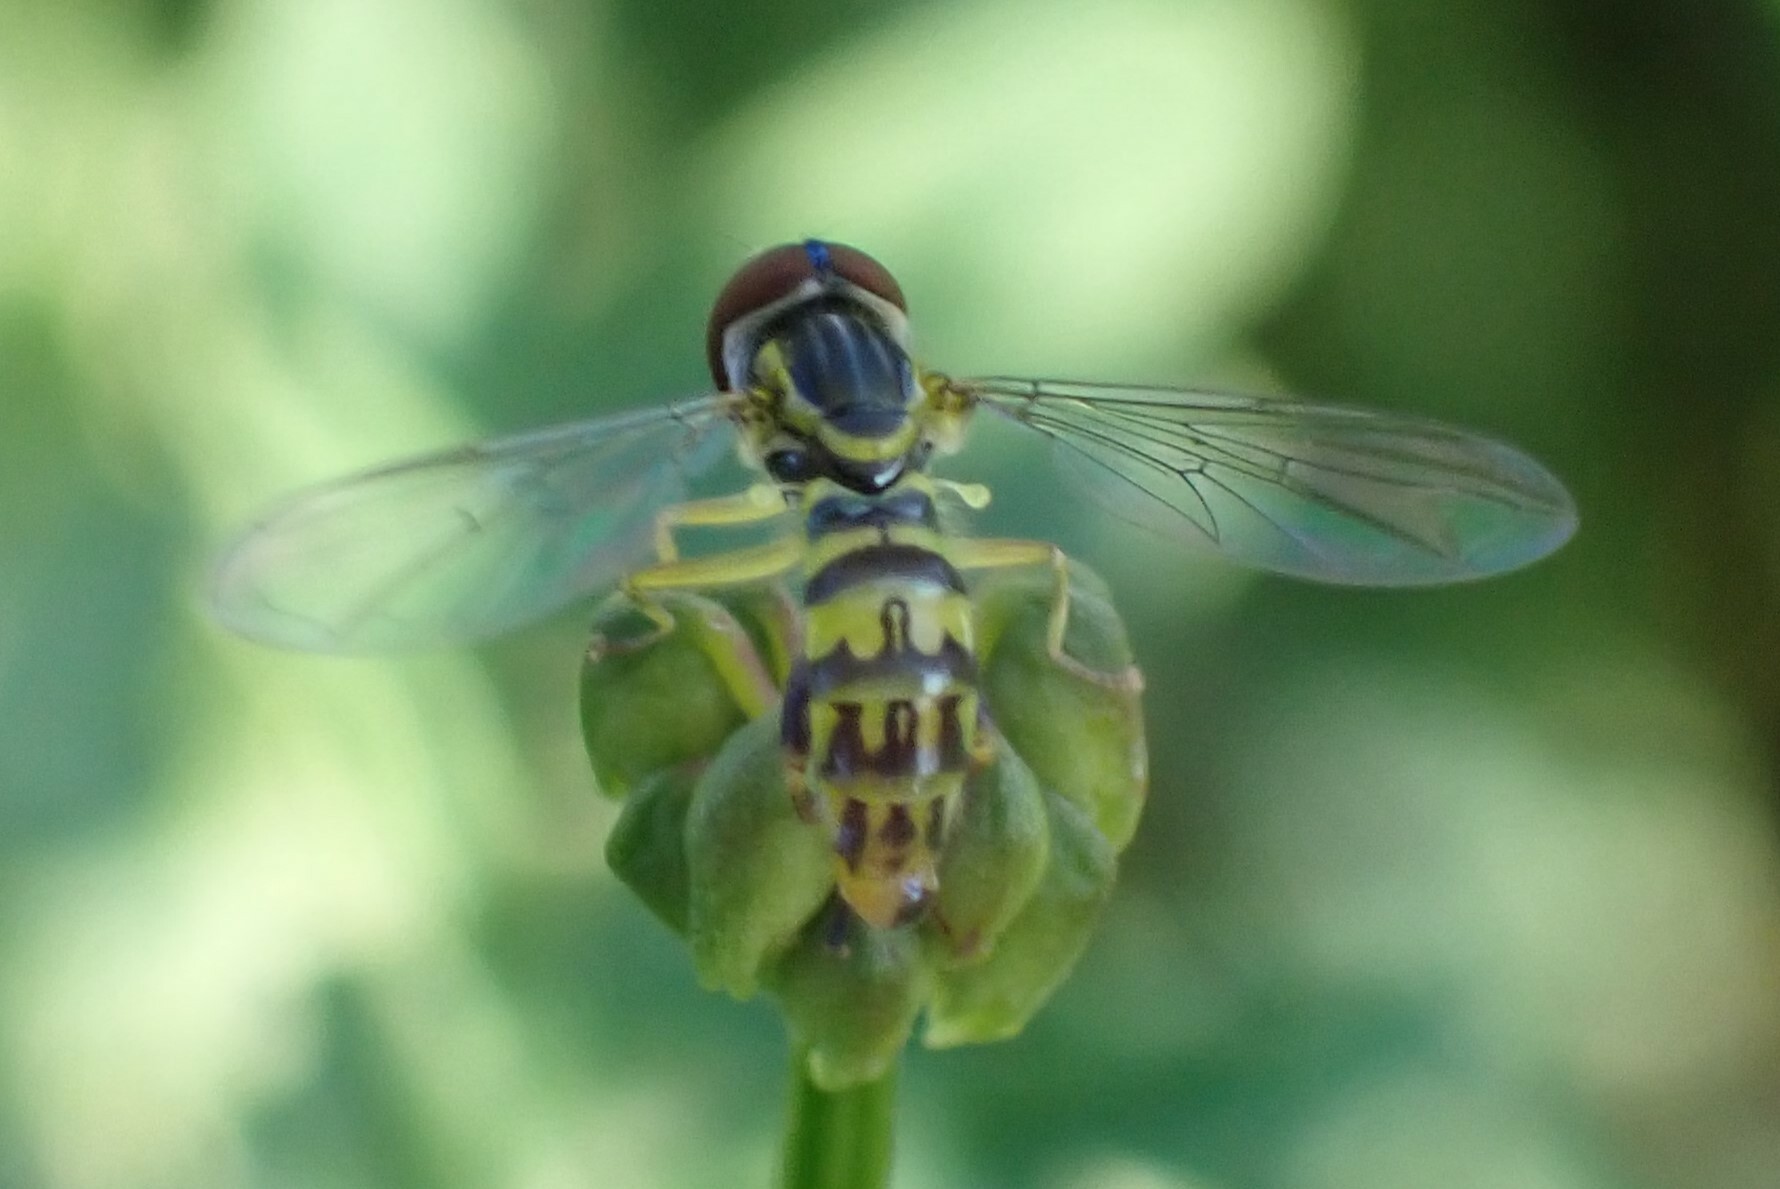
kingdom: Animalia
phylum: Arthropoda
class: Insecta
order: Diptera
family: Syrphidae
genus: Toxomerus
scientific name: Toxomerus geminatus
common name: Eastern calligrapher
